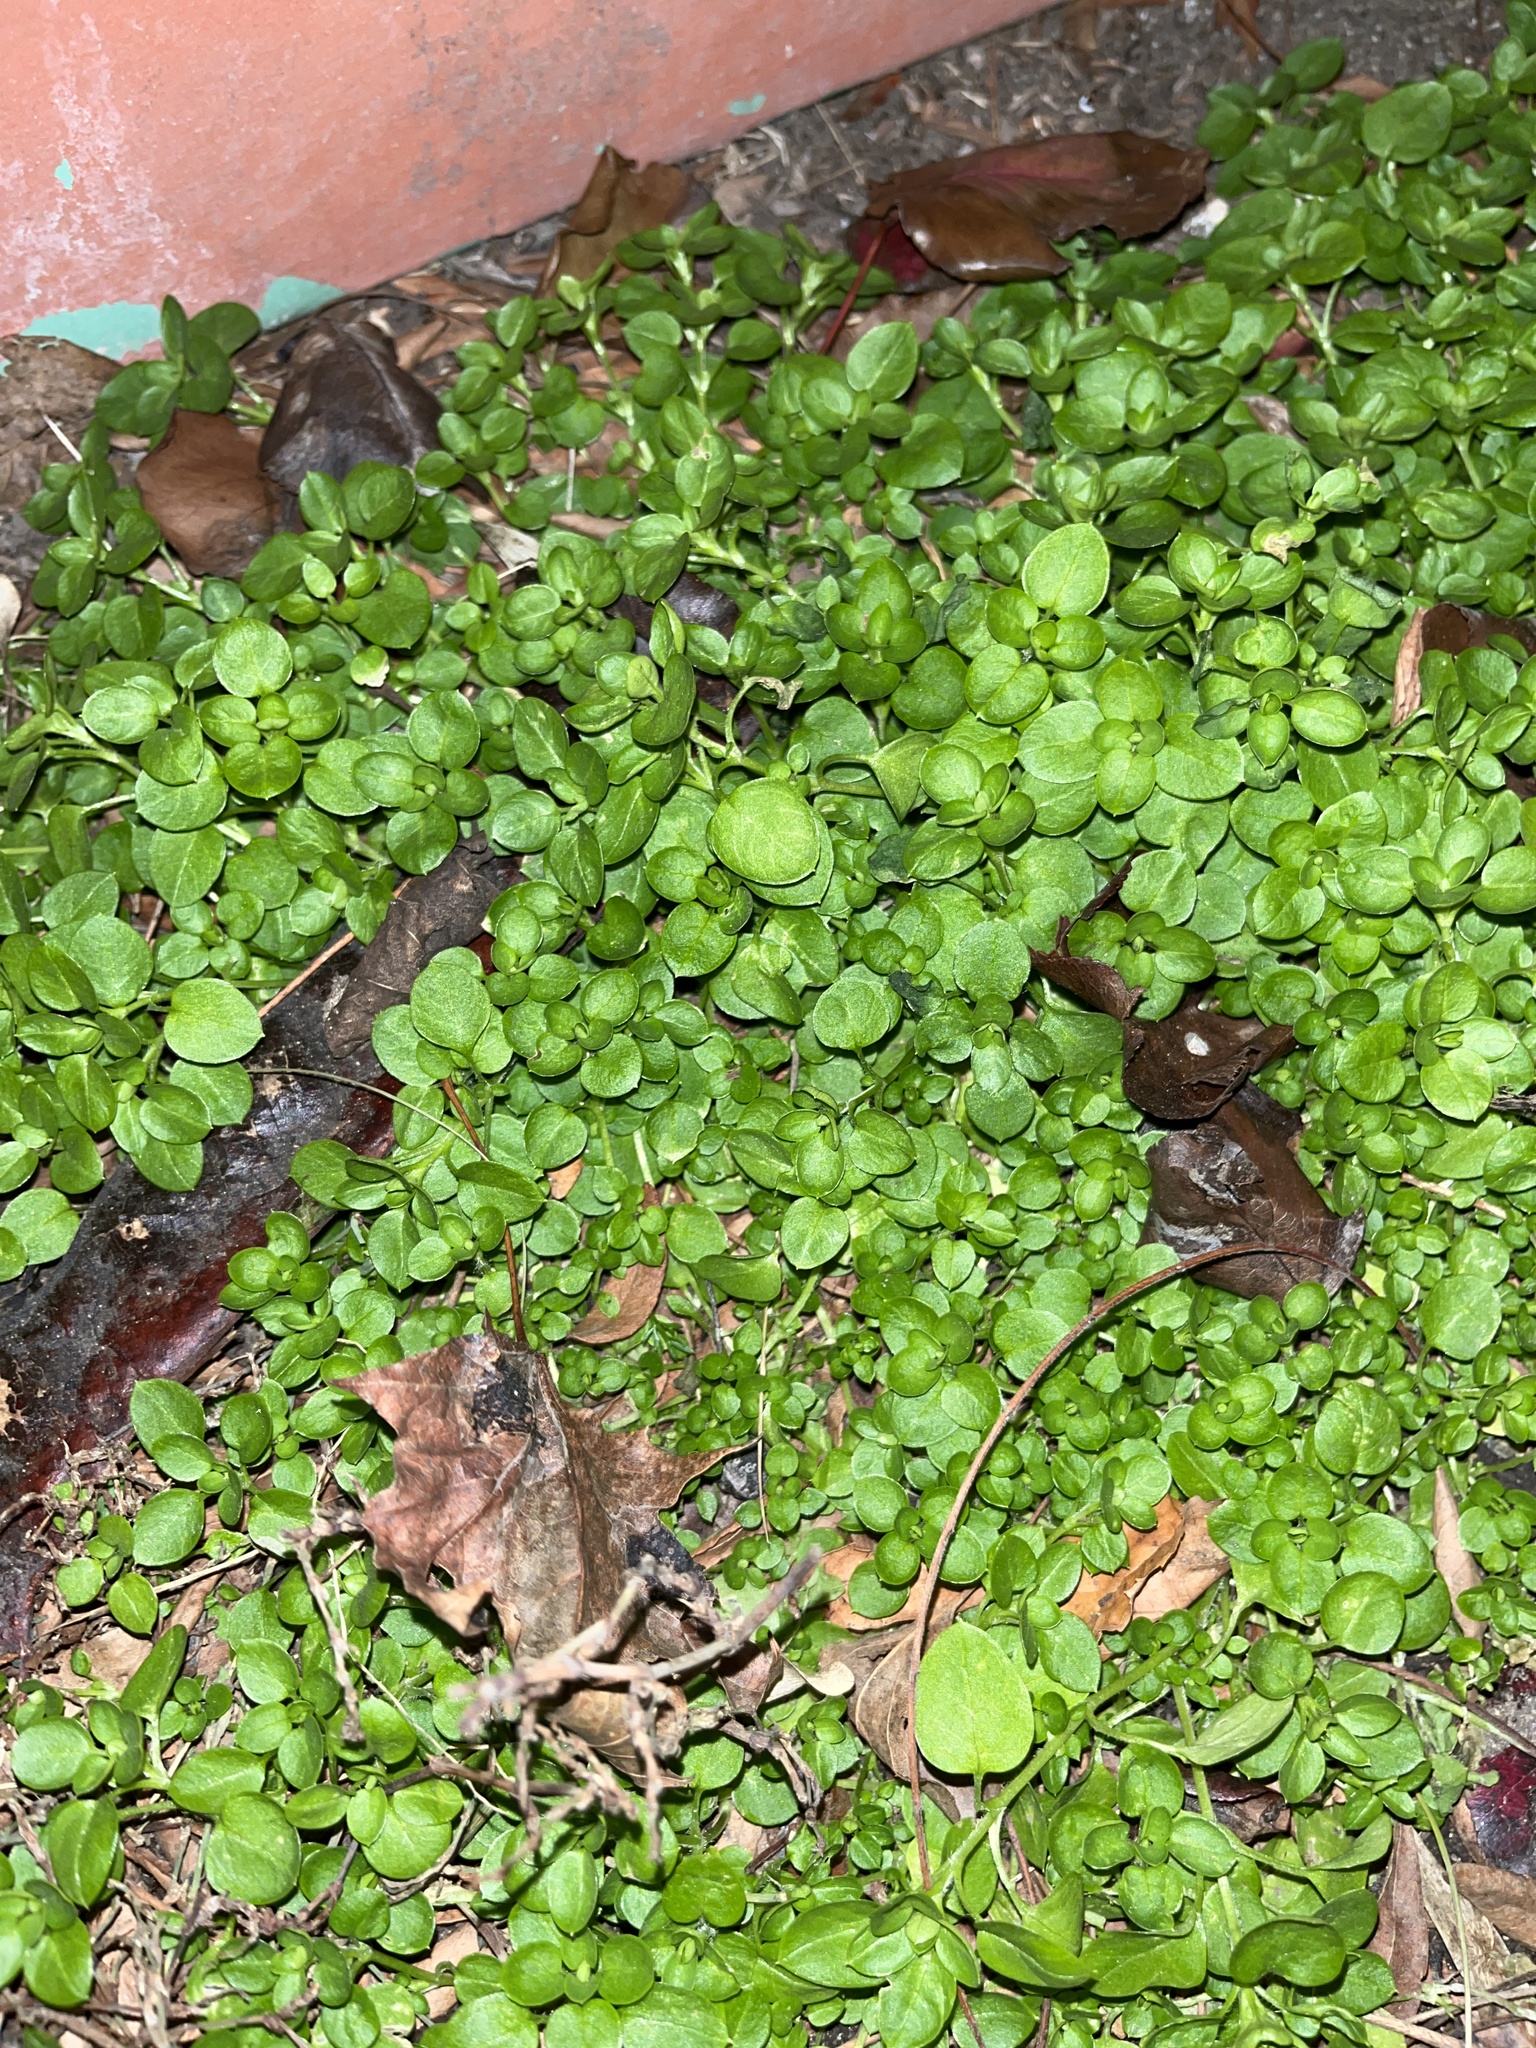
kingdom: Plantae
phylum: Tracheophyta
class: Magnoliopsida
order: Caryophyllales
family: Caryophyllaceae
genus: Stellaria
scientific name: Stellaria media
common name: Common chickweed
